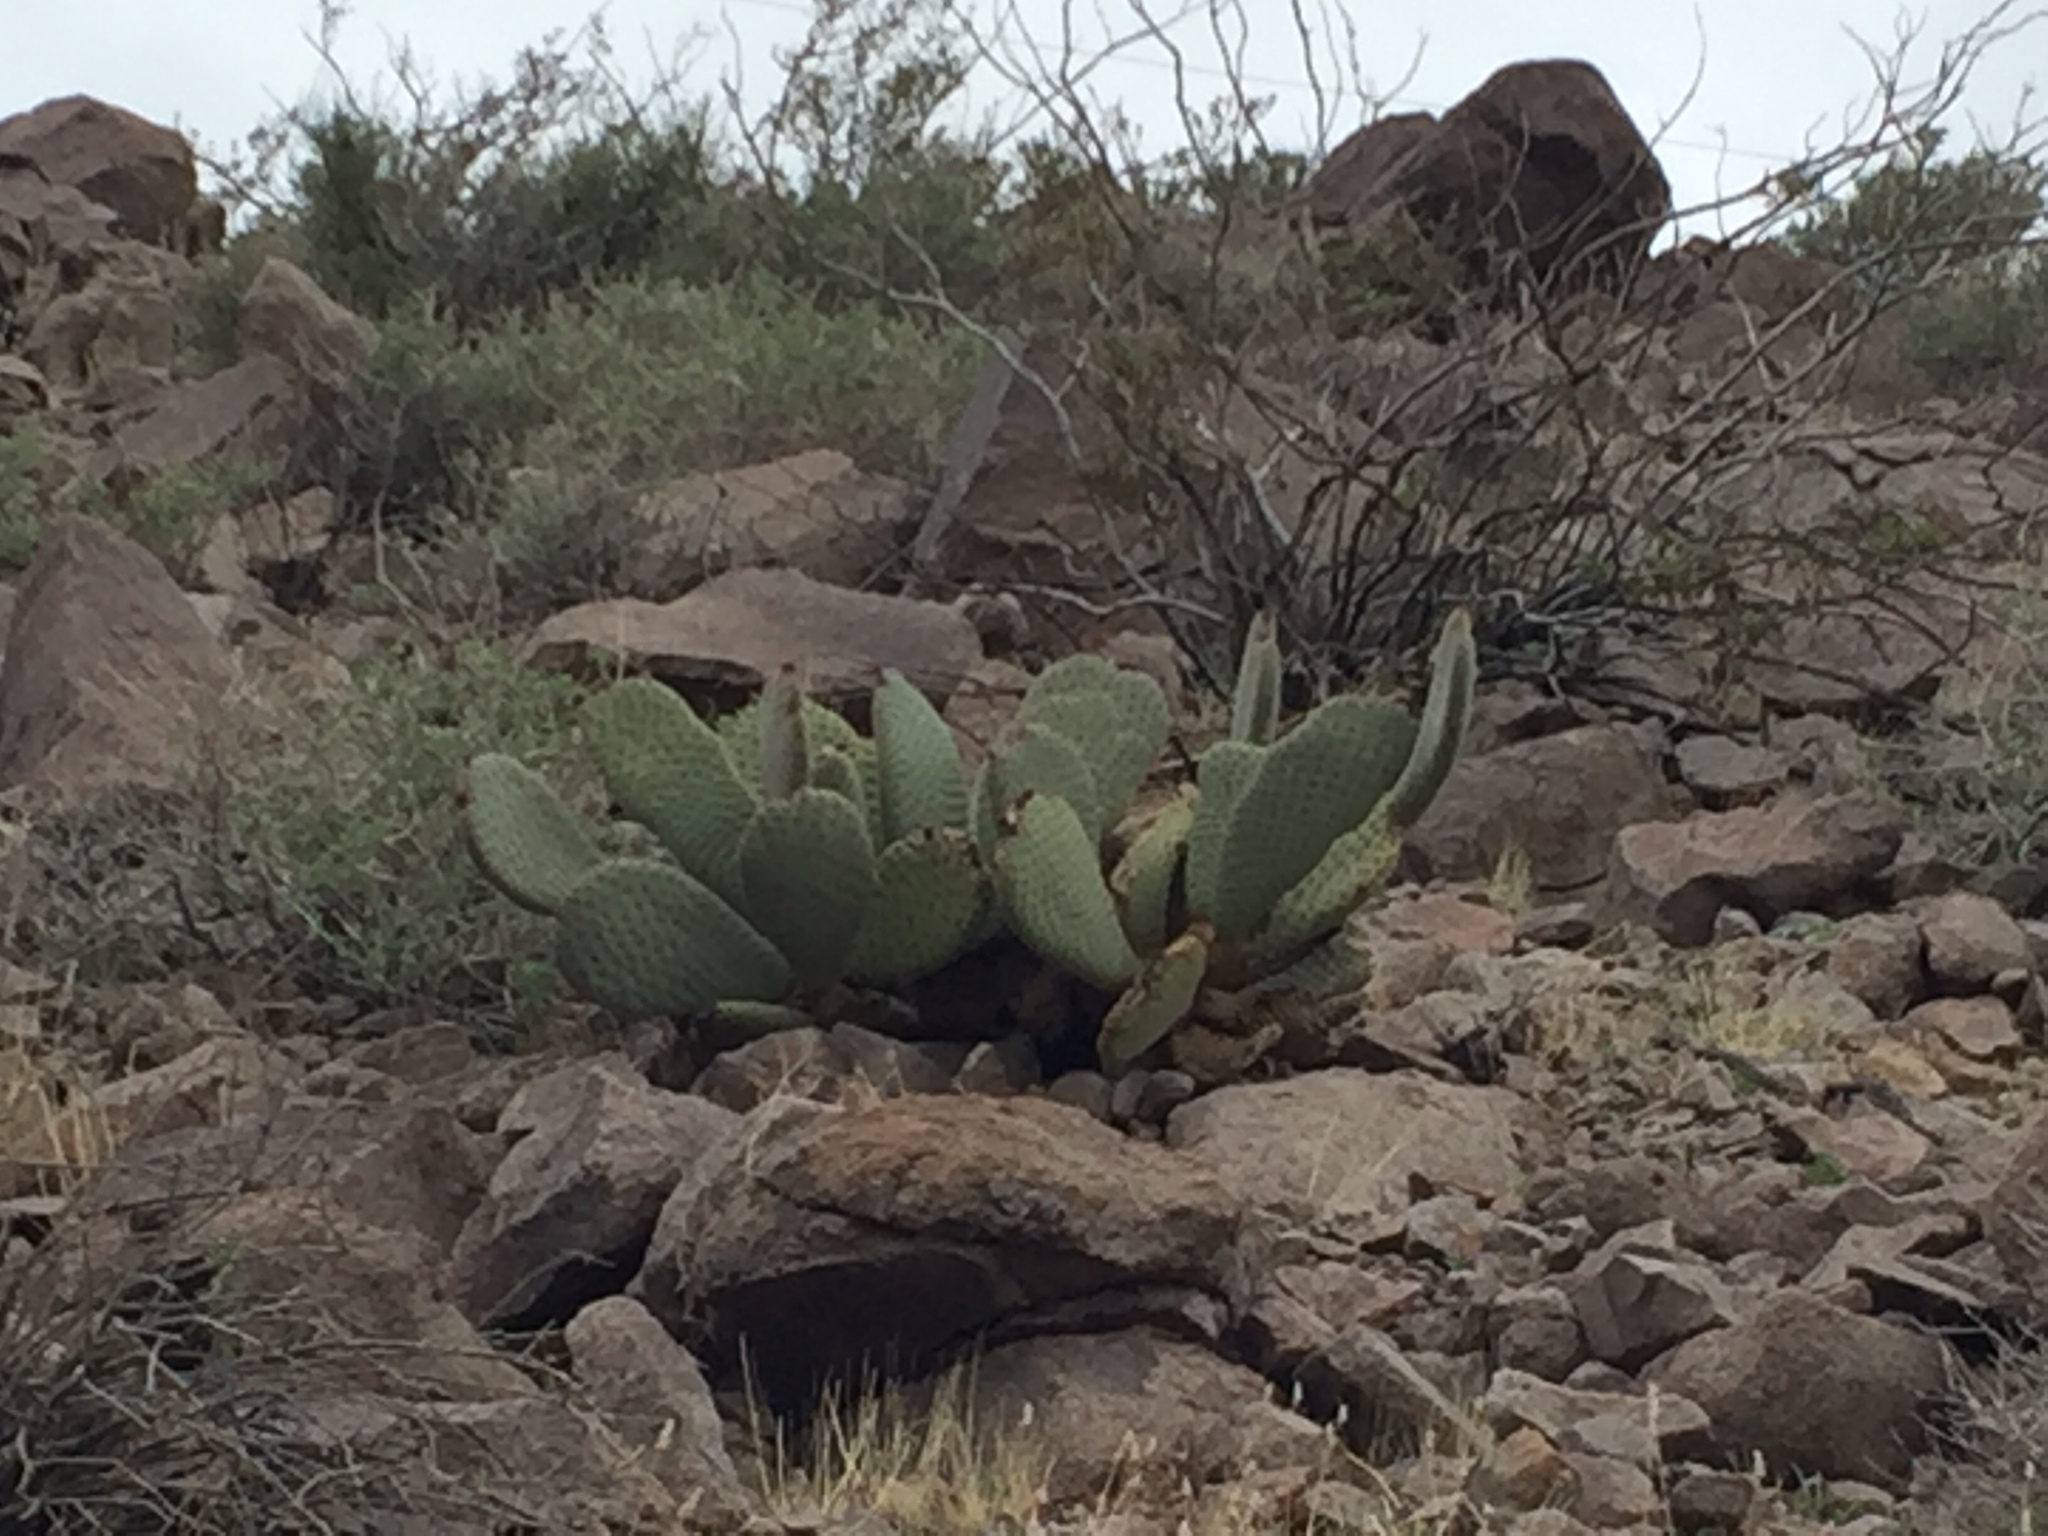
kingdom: Plantae
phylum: Tracheophyta
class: Magnoliopsida
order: Caryophyllales
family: Cactaceae
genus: Opuntia
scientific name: Opuntia basilaris
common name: Beavertail prickly-pear
